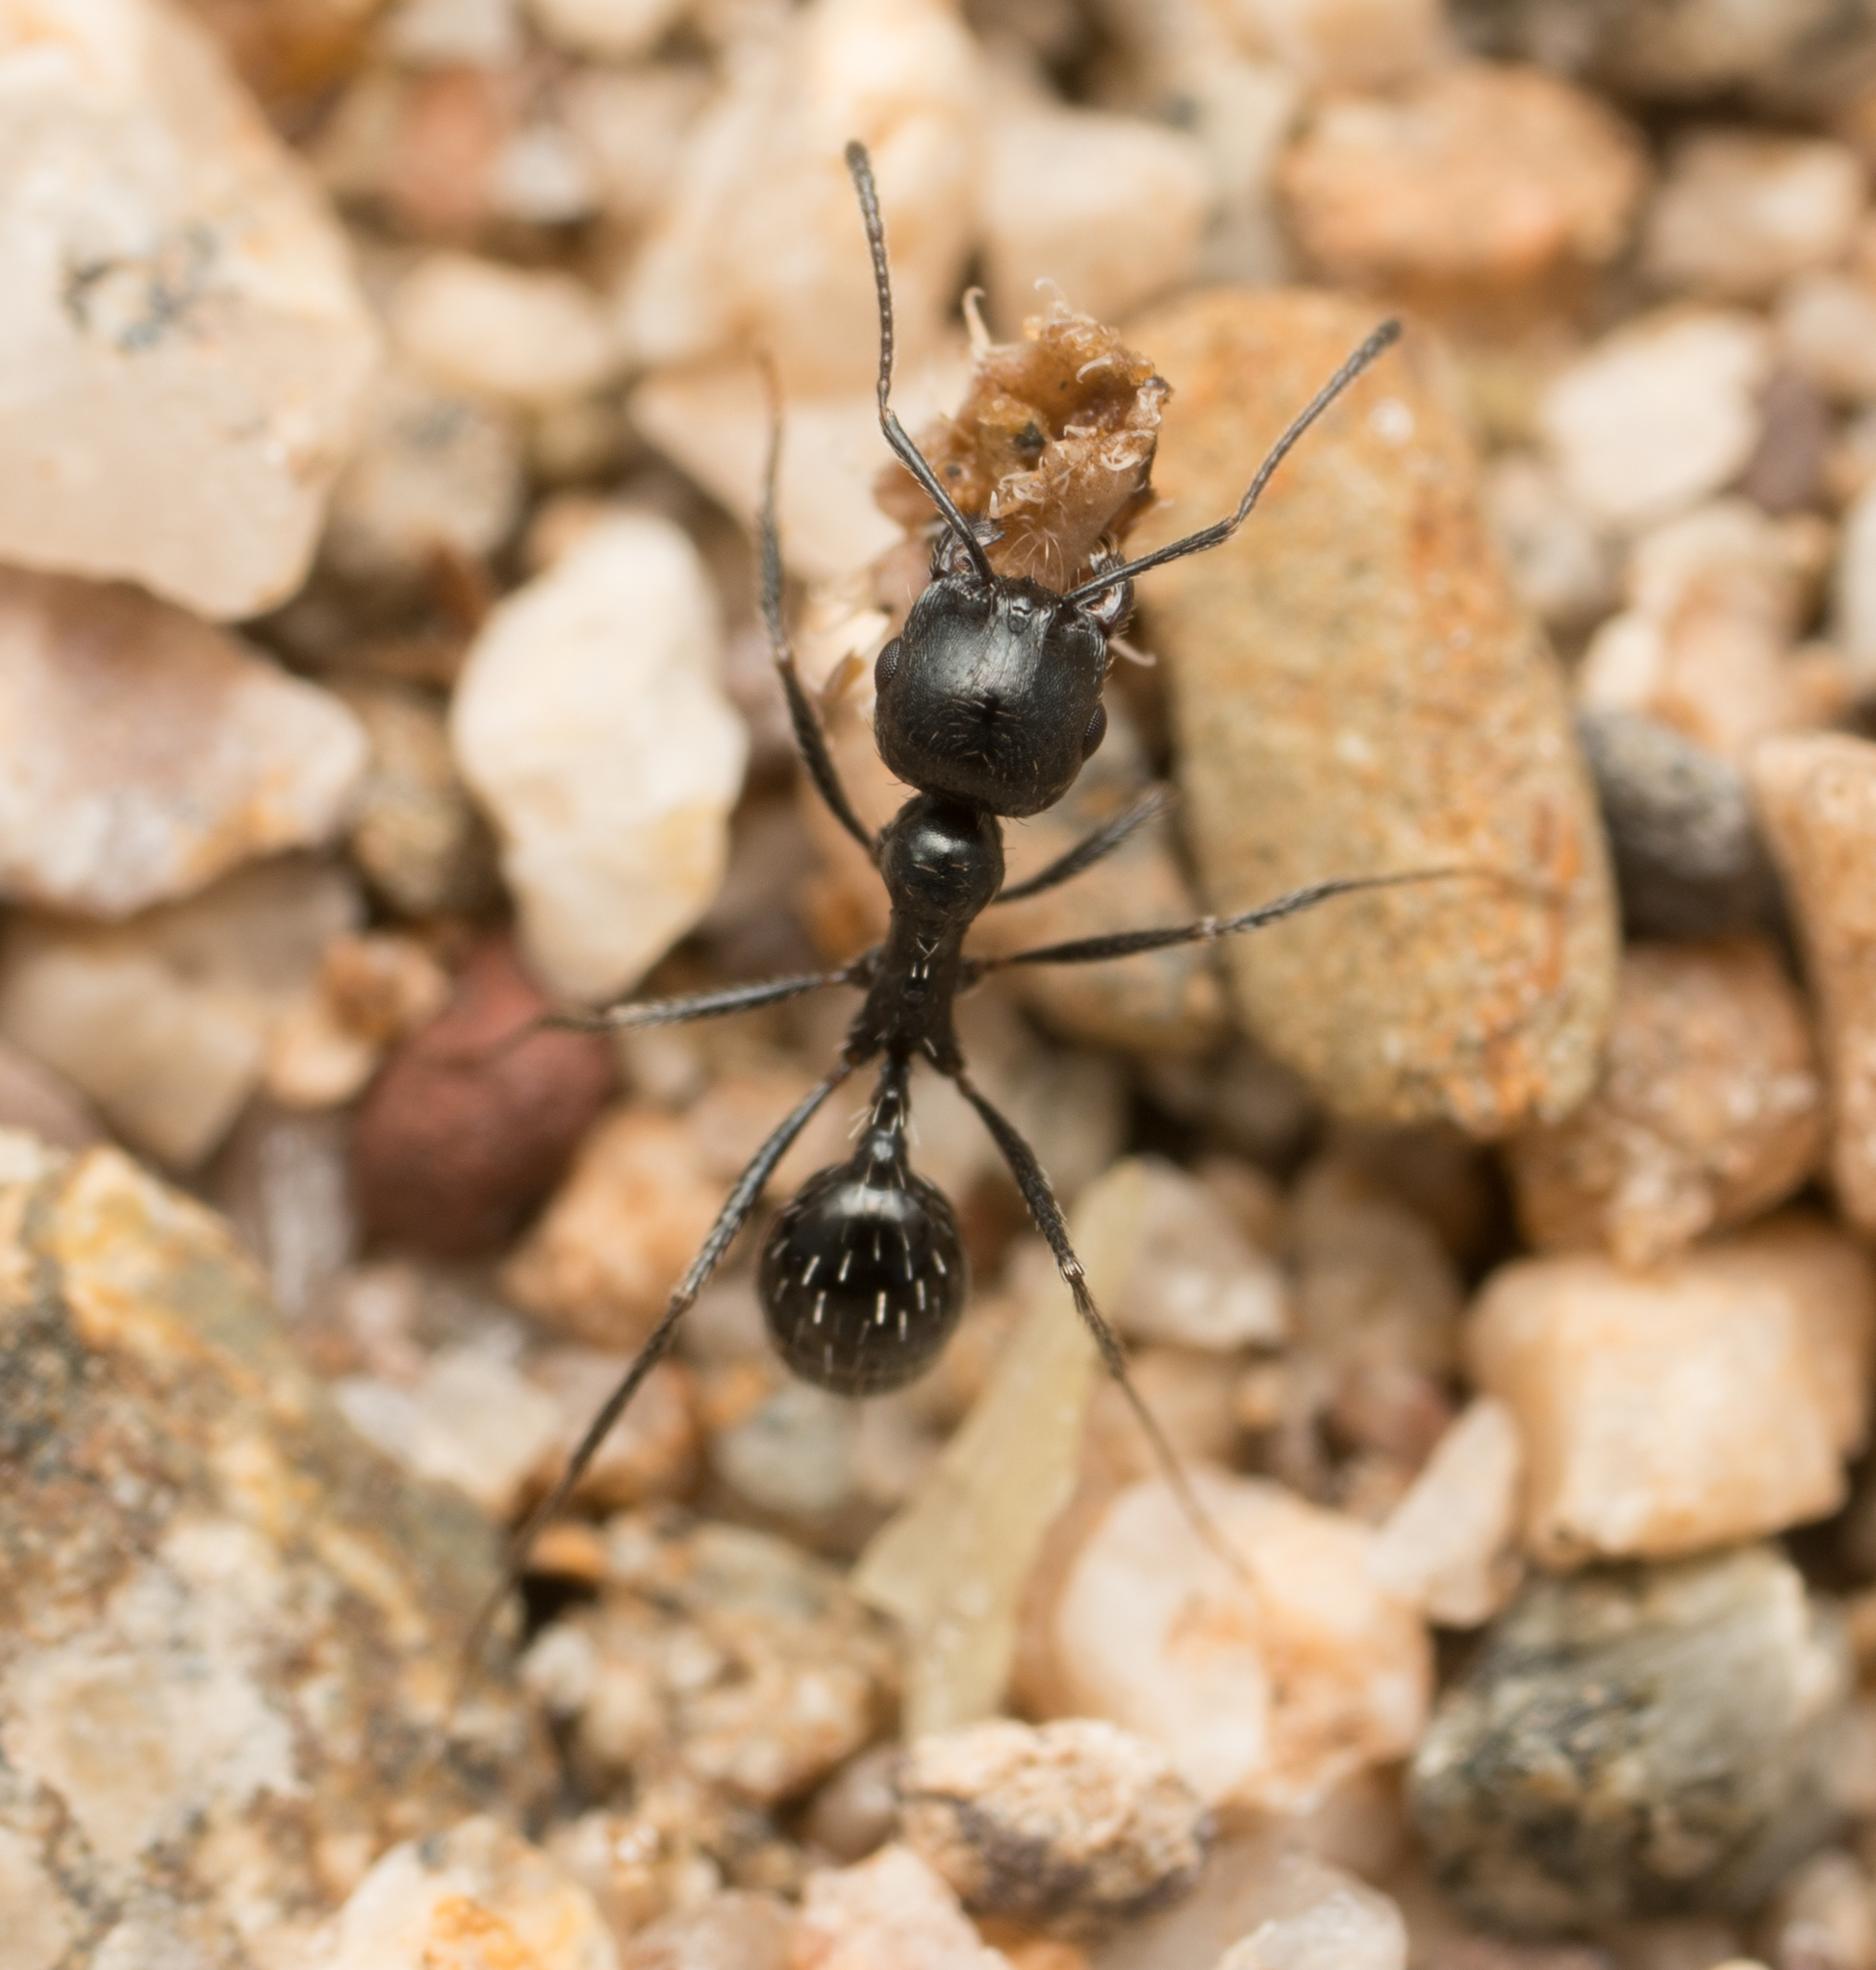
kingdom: Animalia
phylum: Arthropoda
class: Insecta
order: Hymenoptera
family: Formicidae
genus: Messor
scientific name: Messor pergandei
